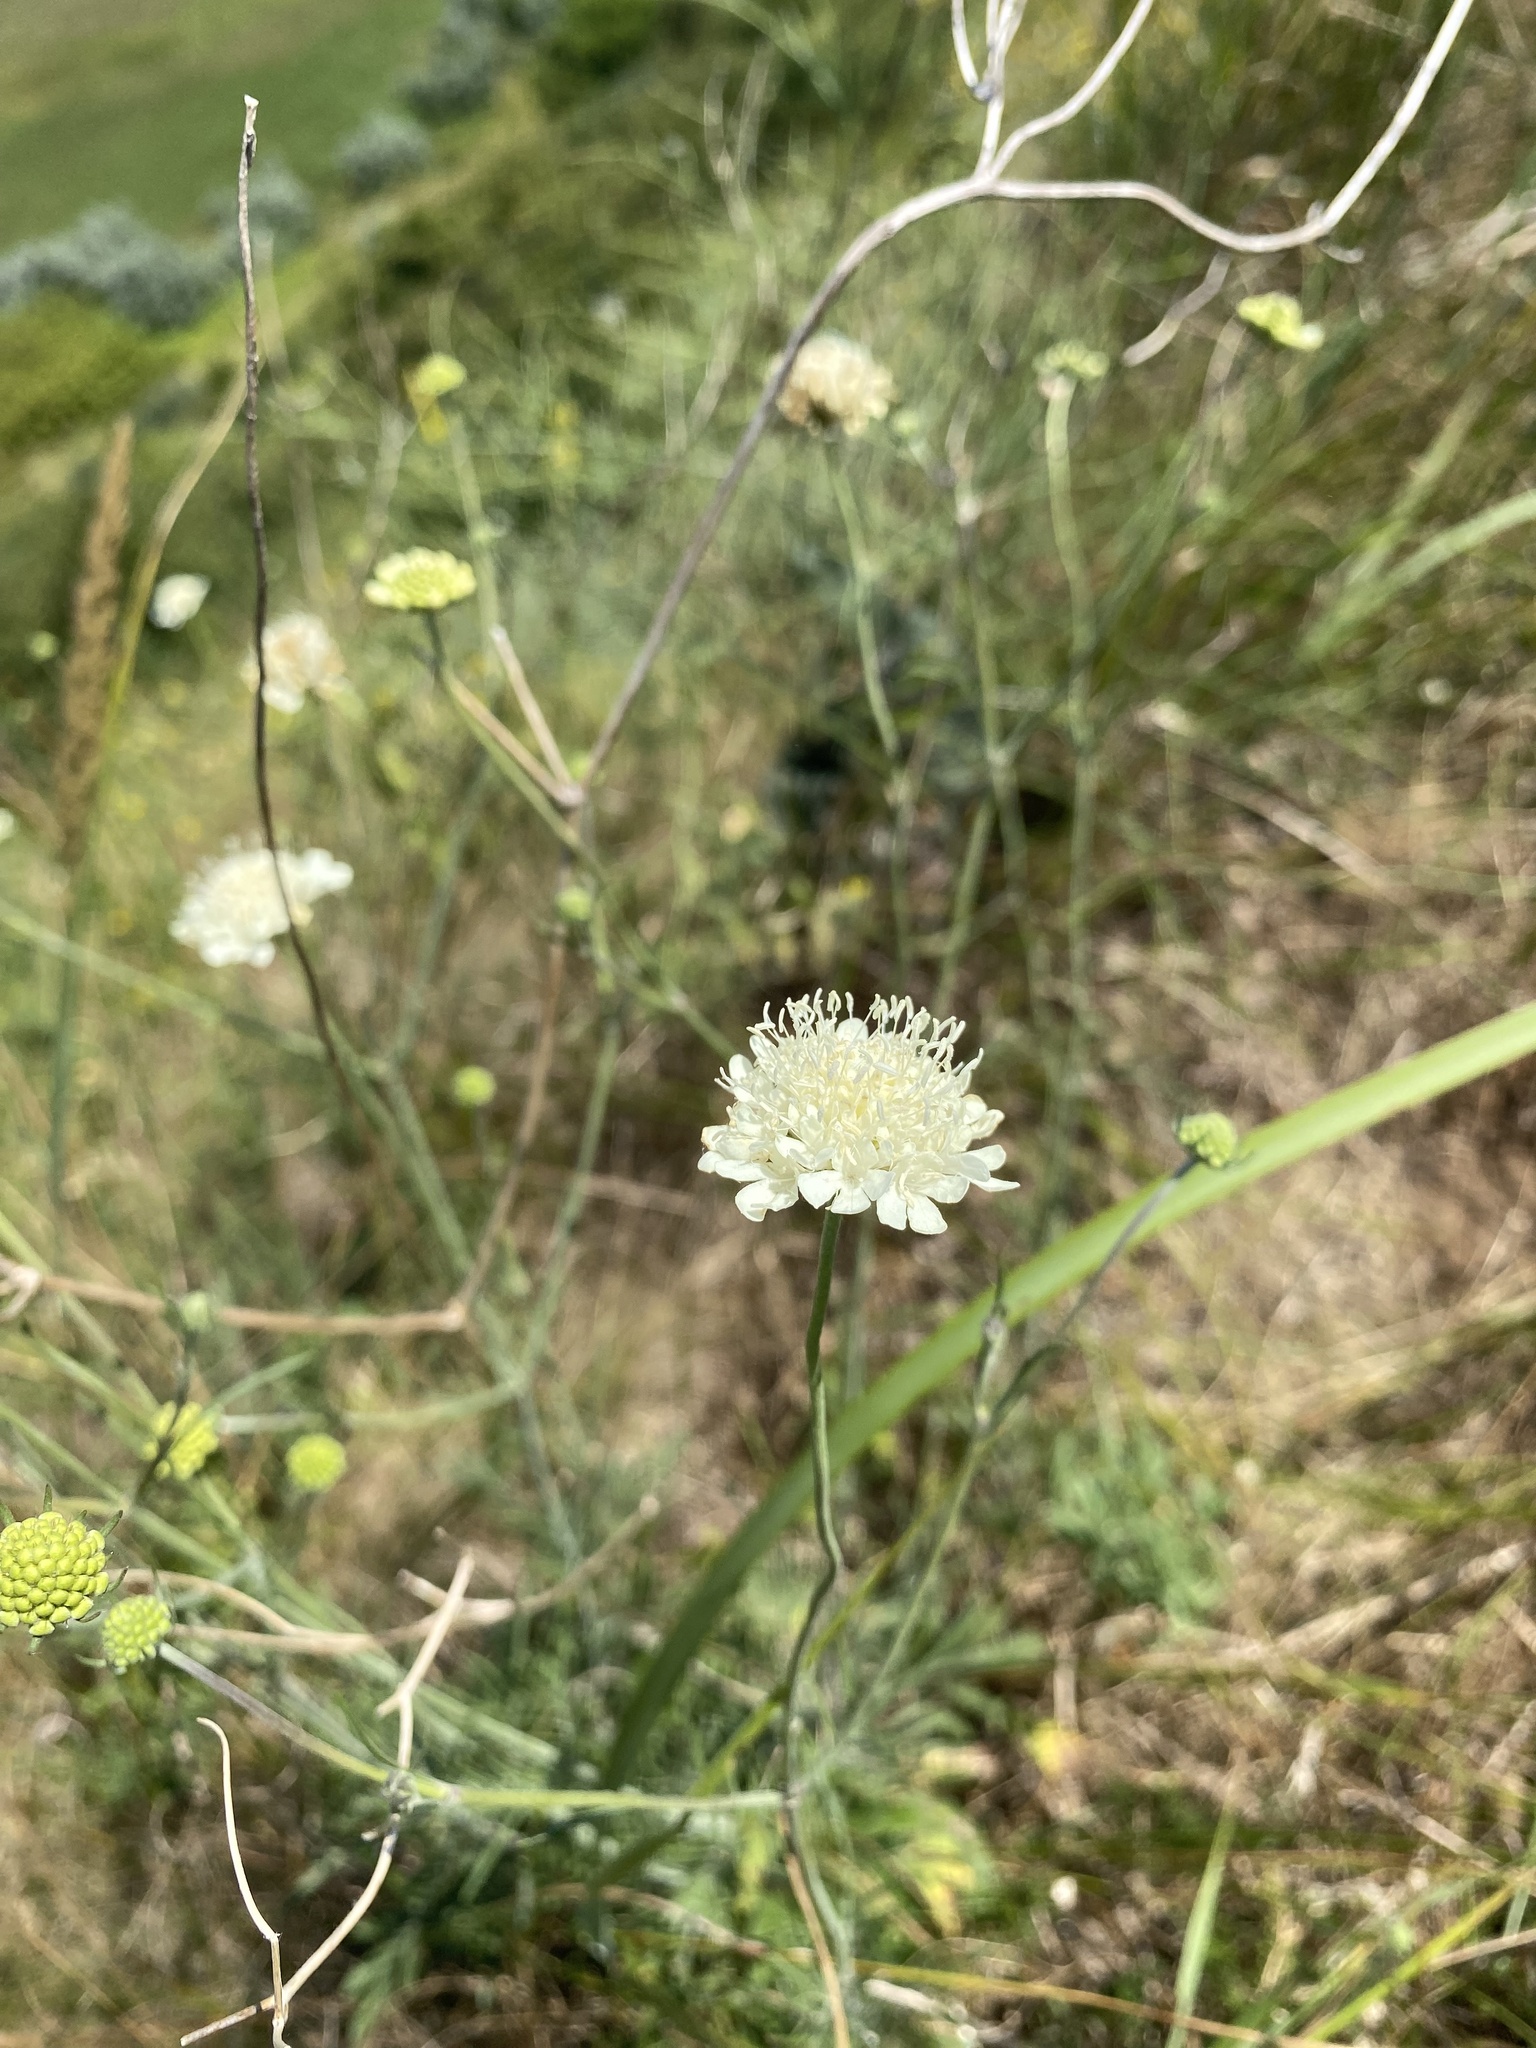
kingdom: Plantae
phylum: Tracheophyta
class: Magnoliopsida
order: Dipsacales
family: Caprifoliaceae
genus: Scabiosa
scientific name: Scabiosa ochroleuca
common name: Cream pincushions
